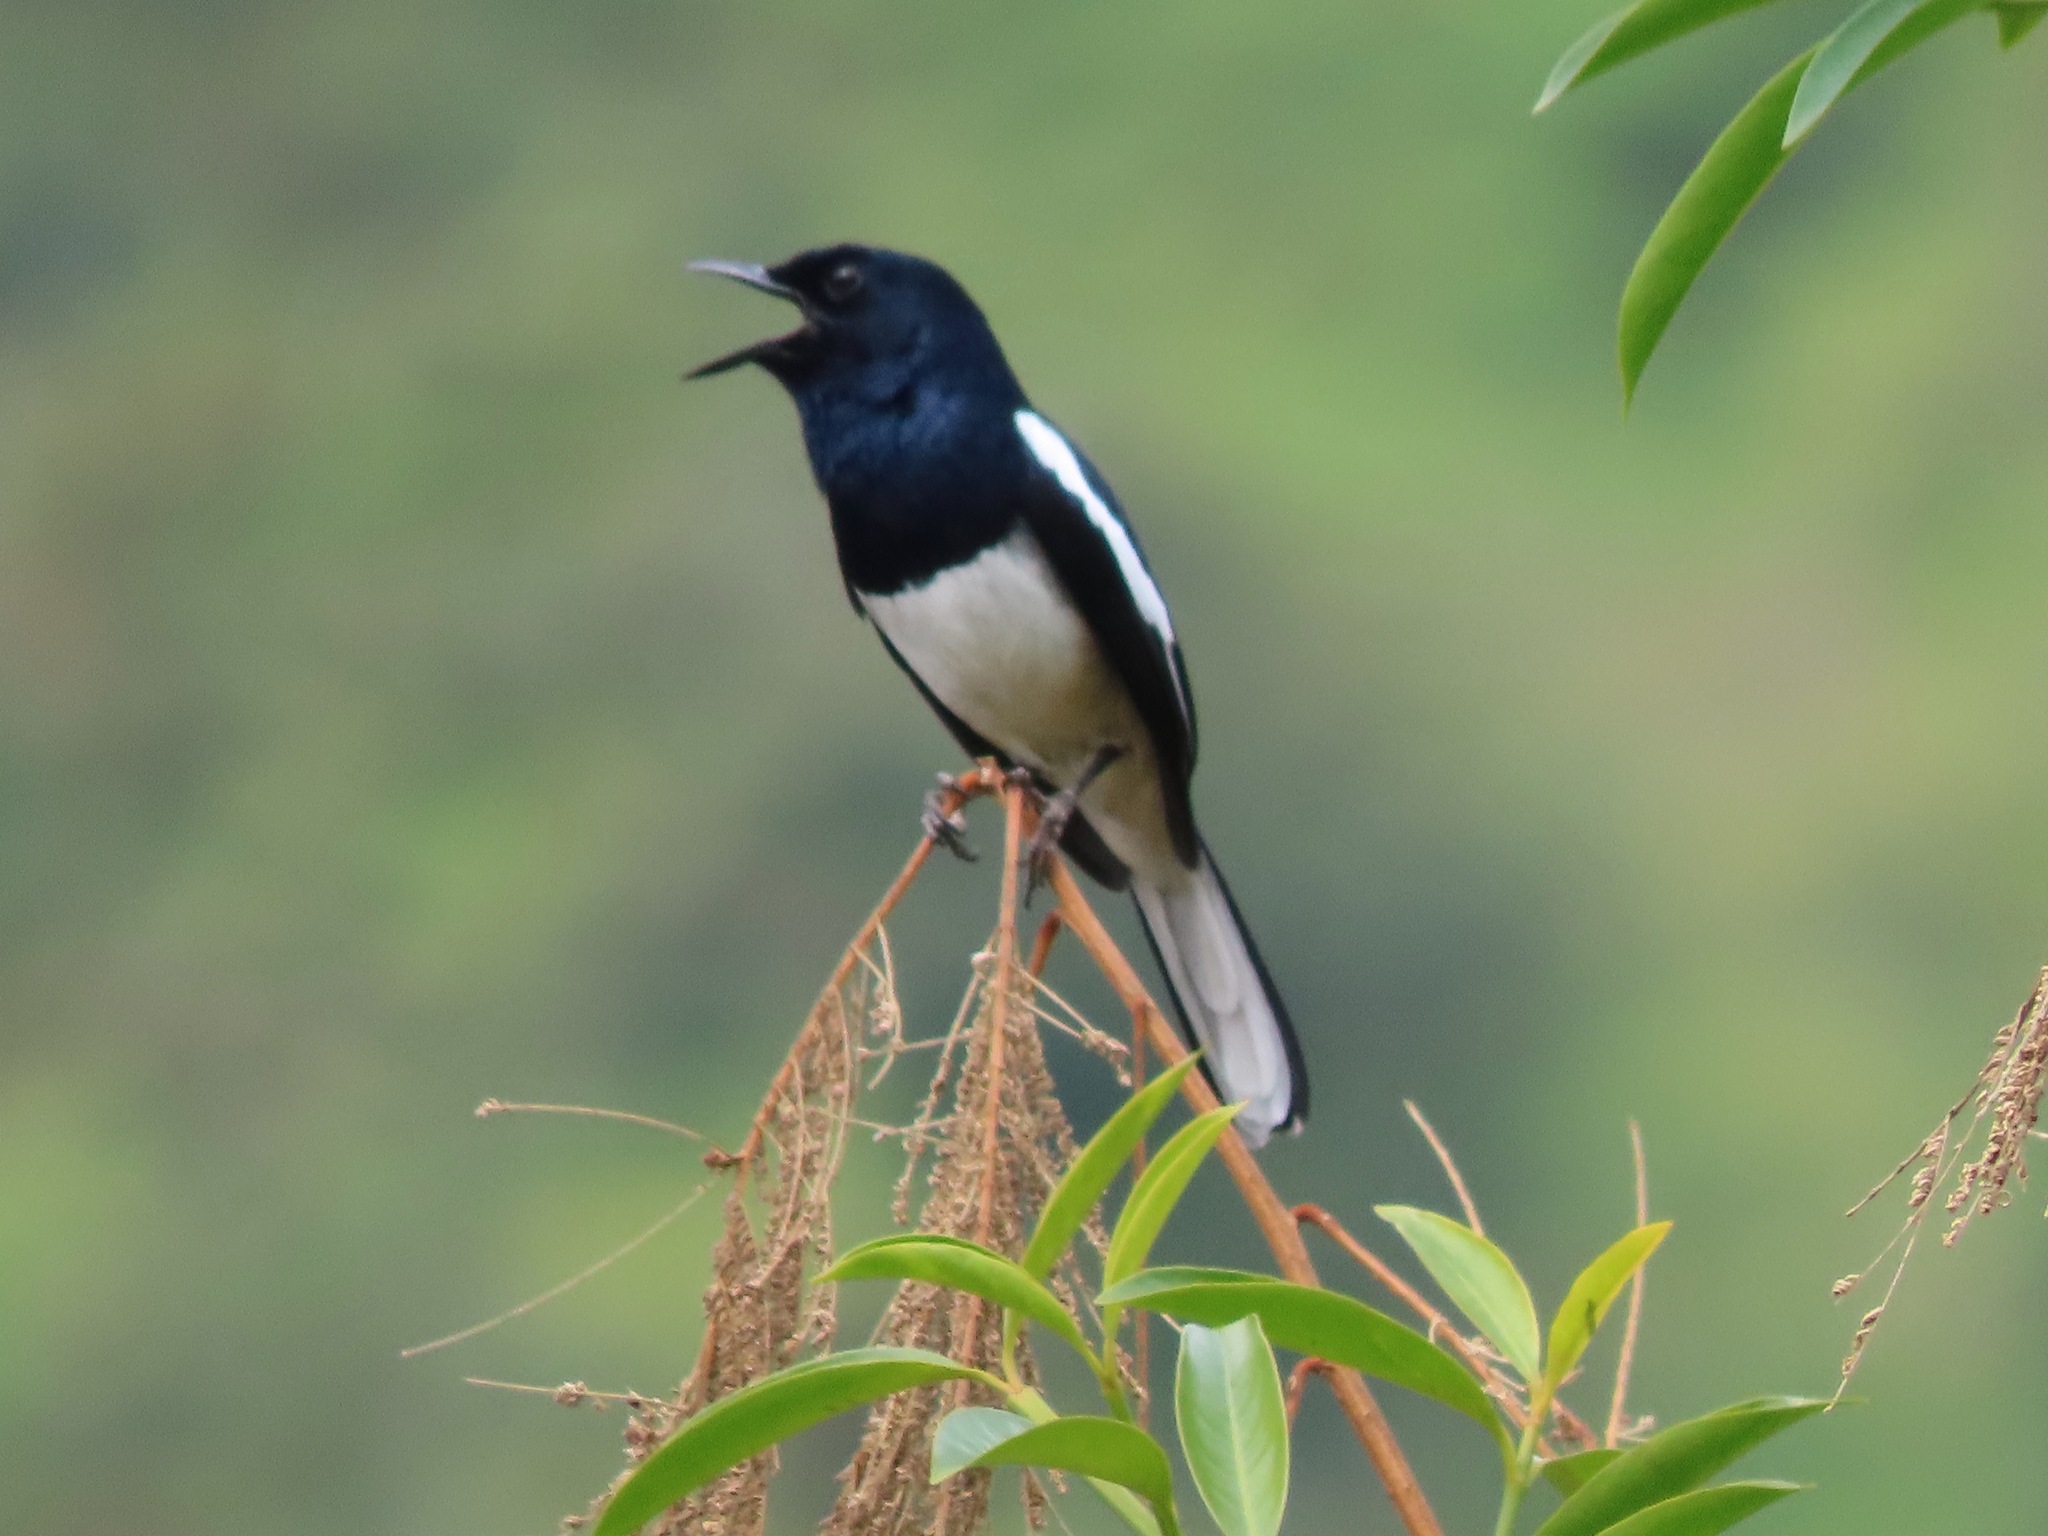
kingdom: Animalia
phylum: Chordata
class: Aves
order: Passeriformes
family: Muscicapidae
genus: Copsychus
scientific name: Copsychus saularis
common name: Oriental magpie-robin
